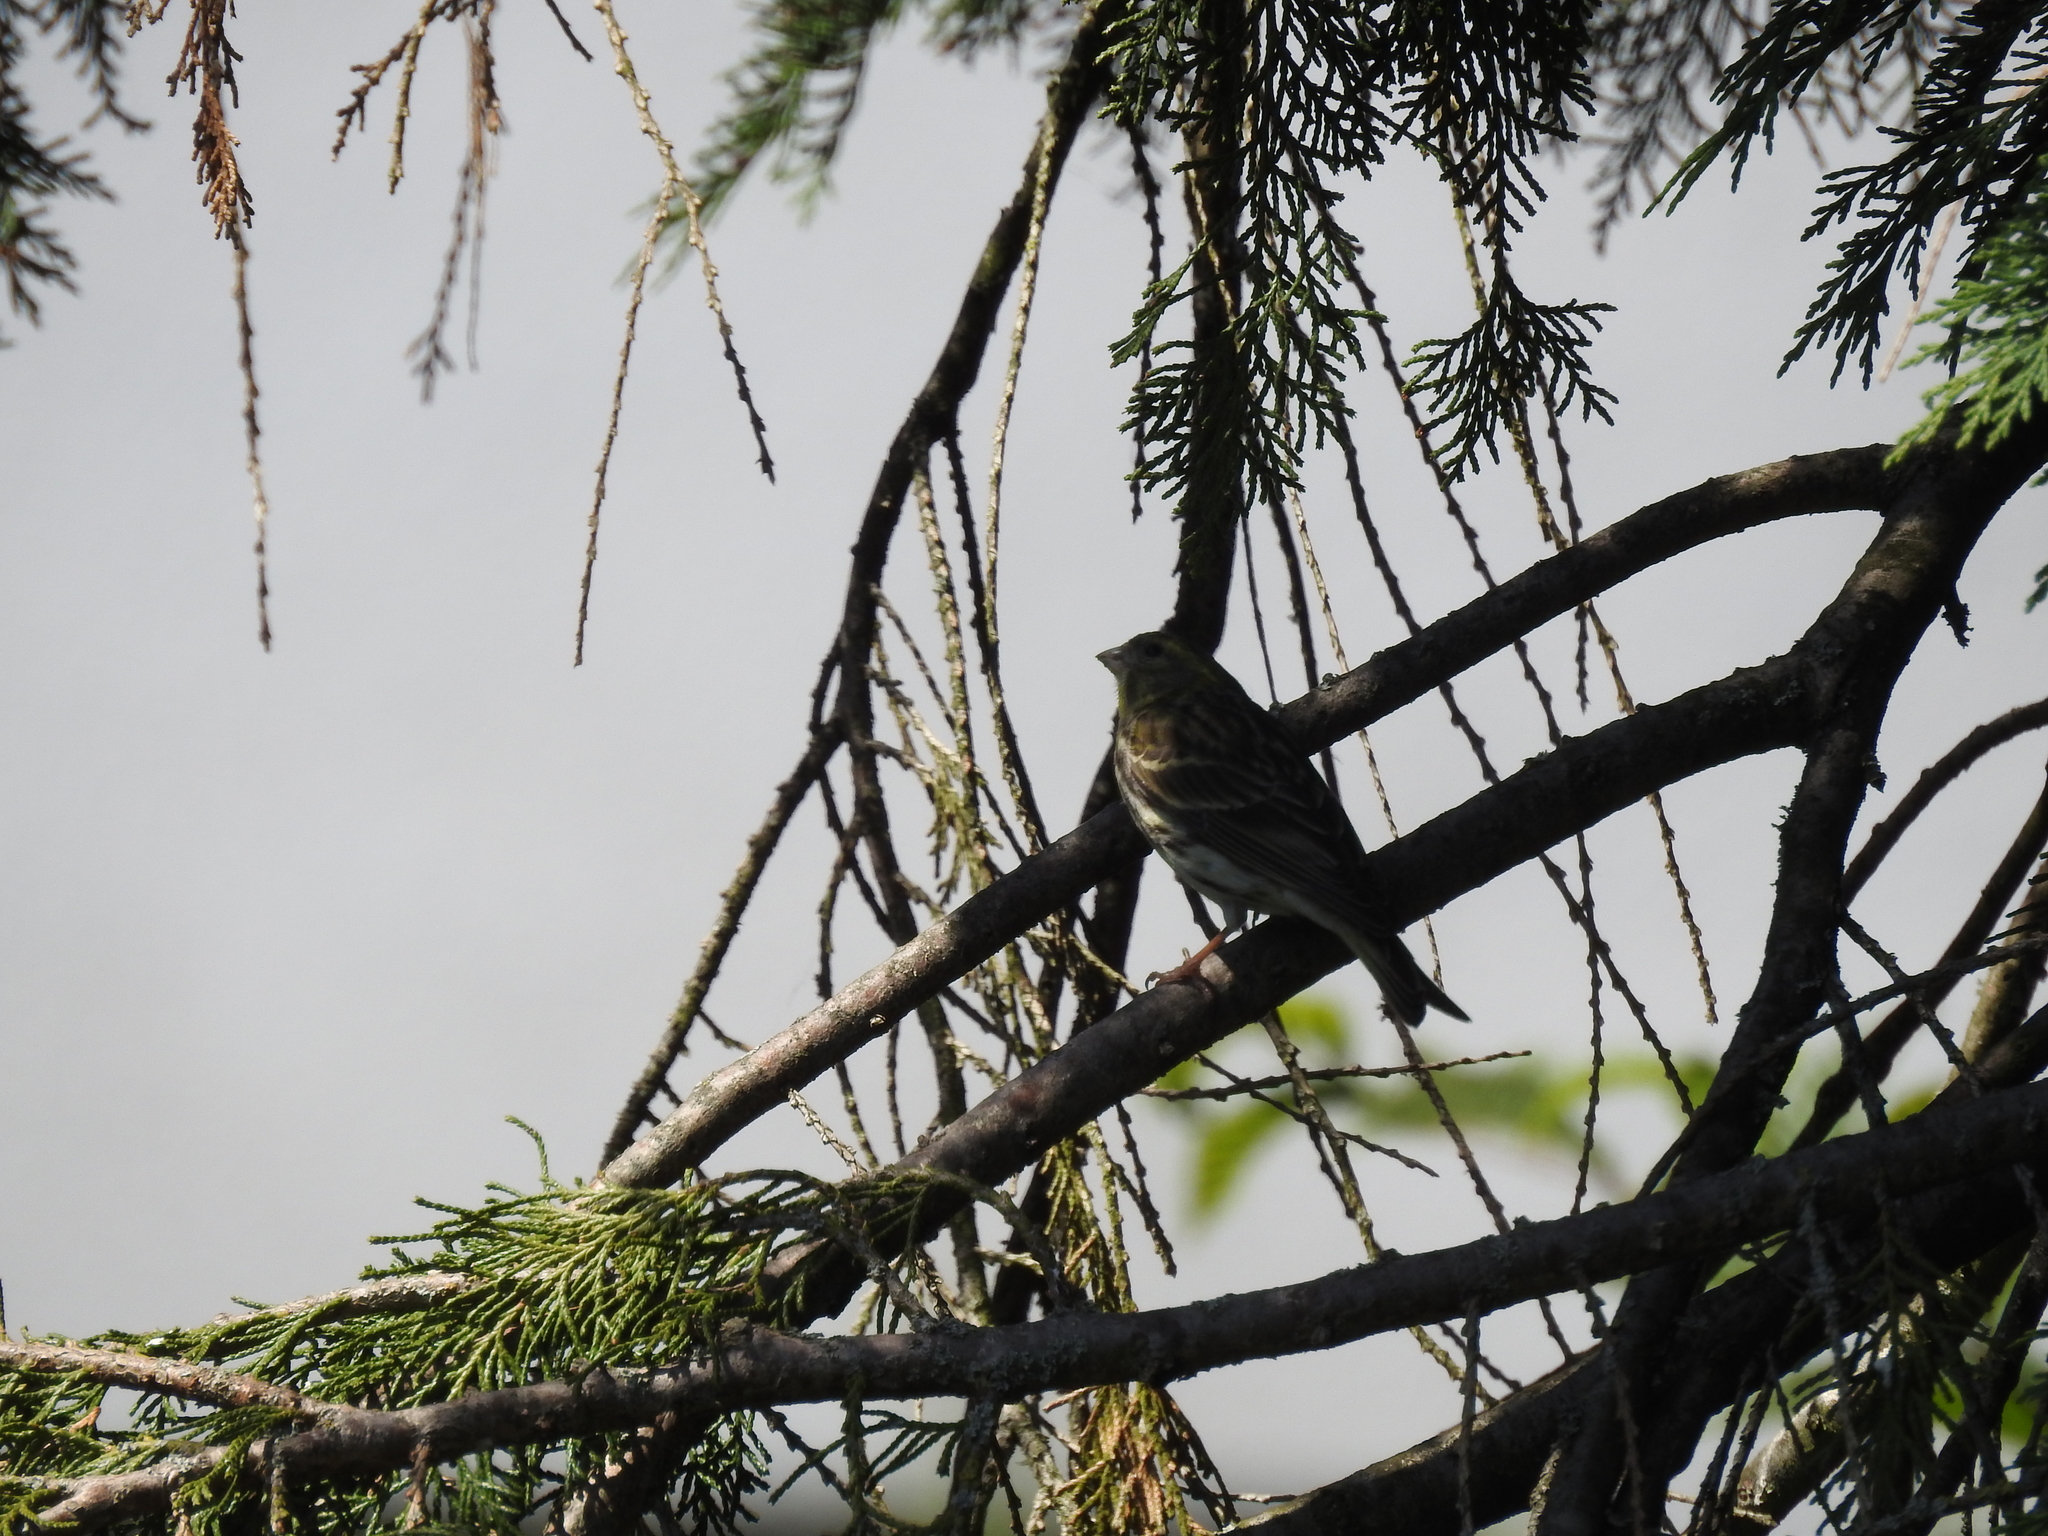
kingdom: Animalia
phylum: Chordata
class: Aves
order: Passeriformes
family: Fringillidae
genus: Serinus
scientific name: Serinus serinus
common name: European serin
